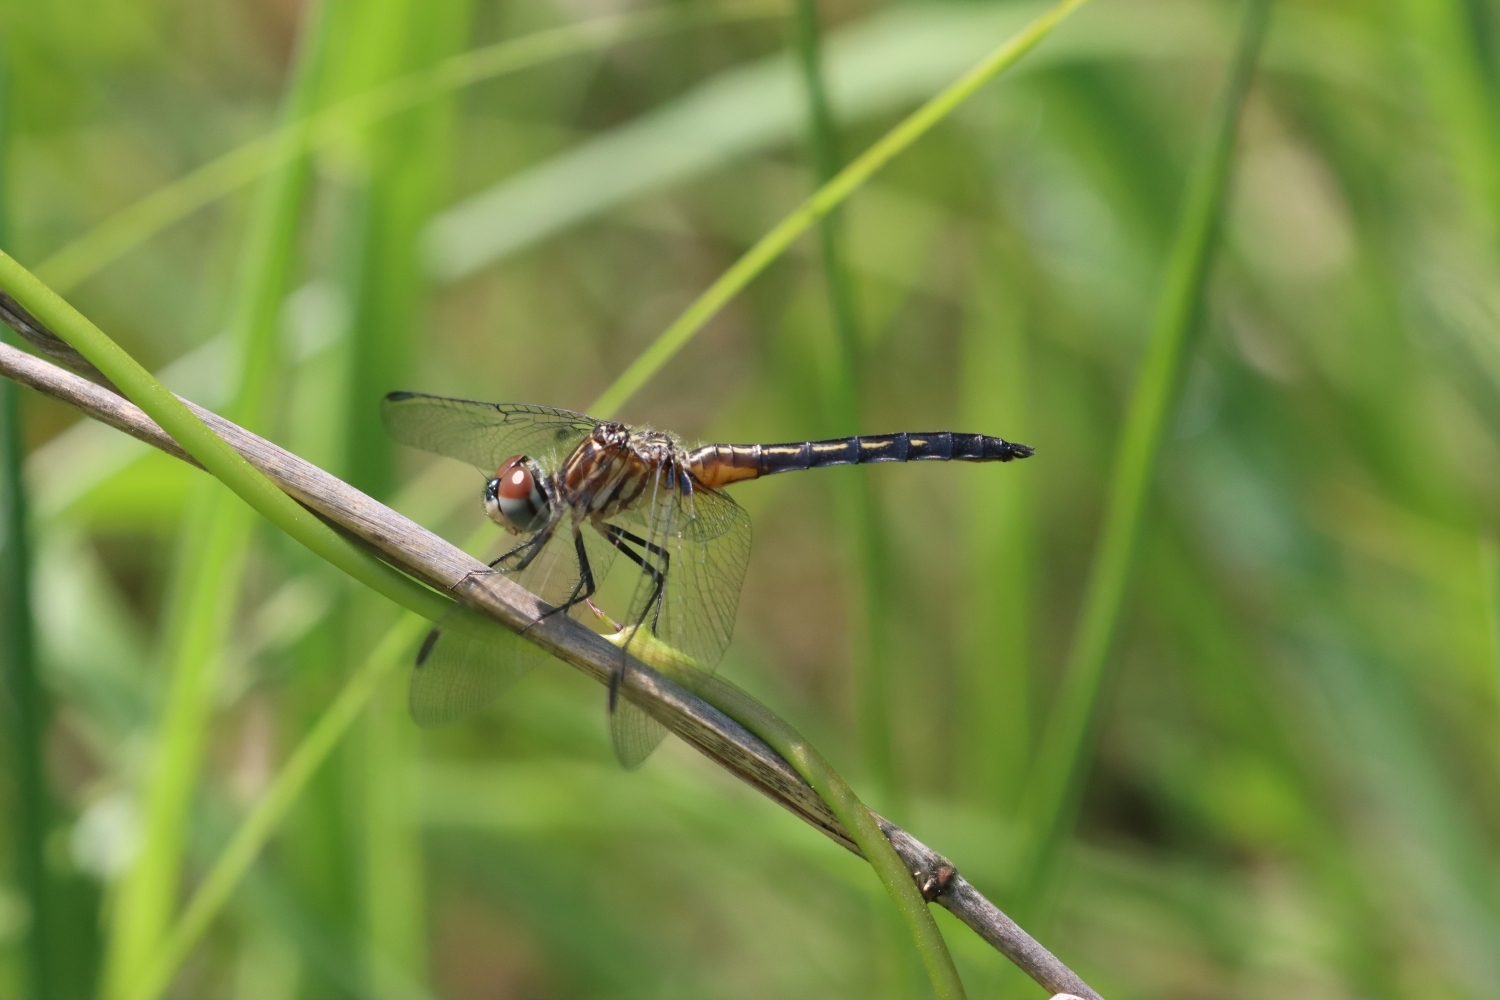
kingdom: Animalia
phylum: Arthropoda
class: Insecta
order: Odonata
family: Libellulidae
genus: Pachydiplax
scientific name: Pachydiplax longipennis
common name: Blue dasher
